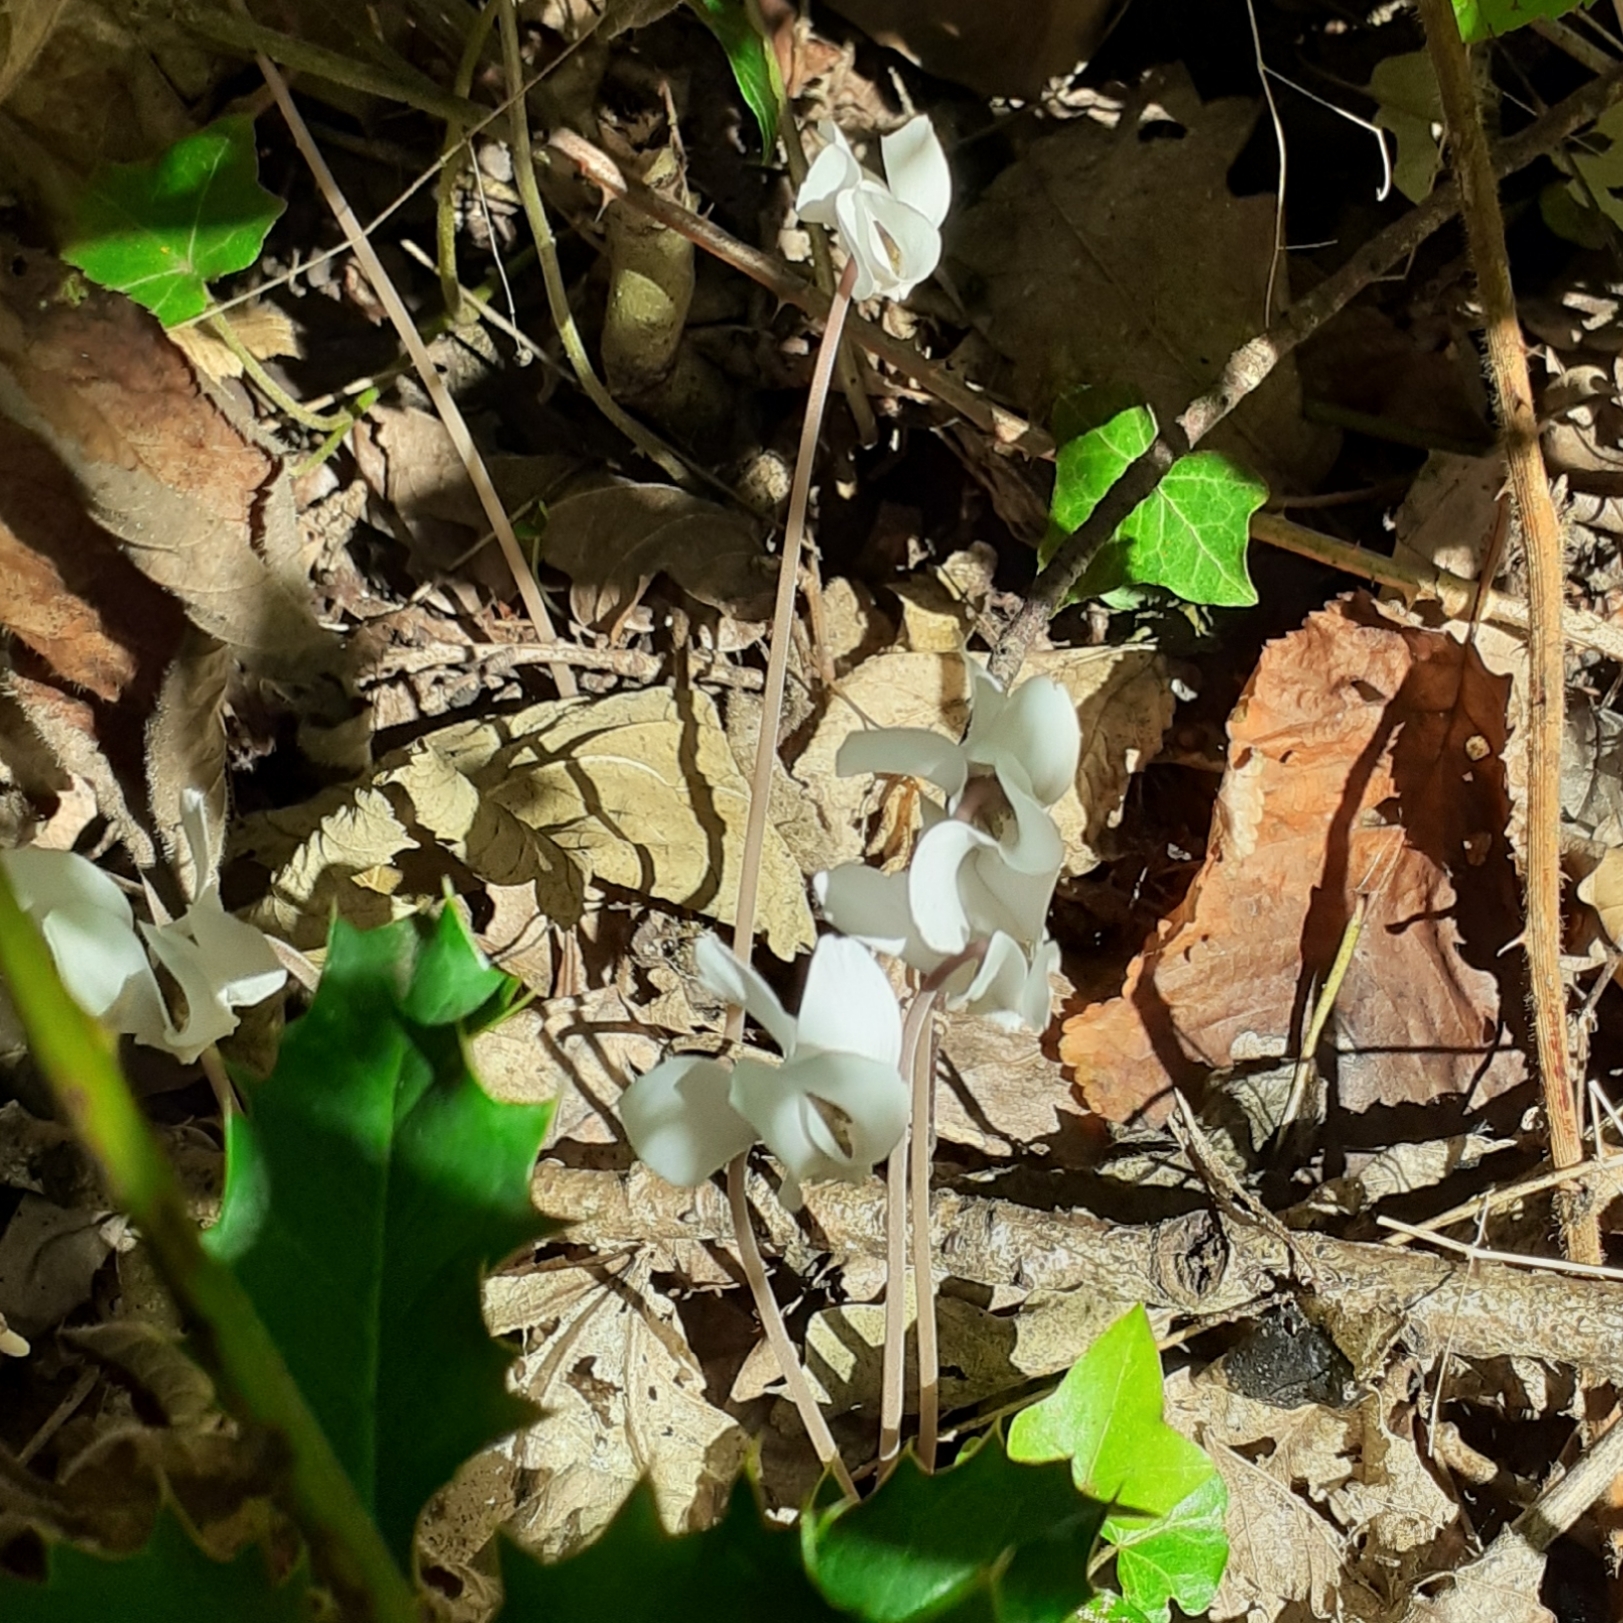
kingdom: Plantae
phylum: Tracheophyta
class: Magnoliopsida
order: Ericales
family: Primulaceae
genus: Cyclamen
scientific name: Cyclamen hederifolium
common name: Sowbread
